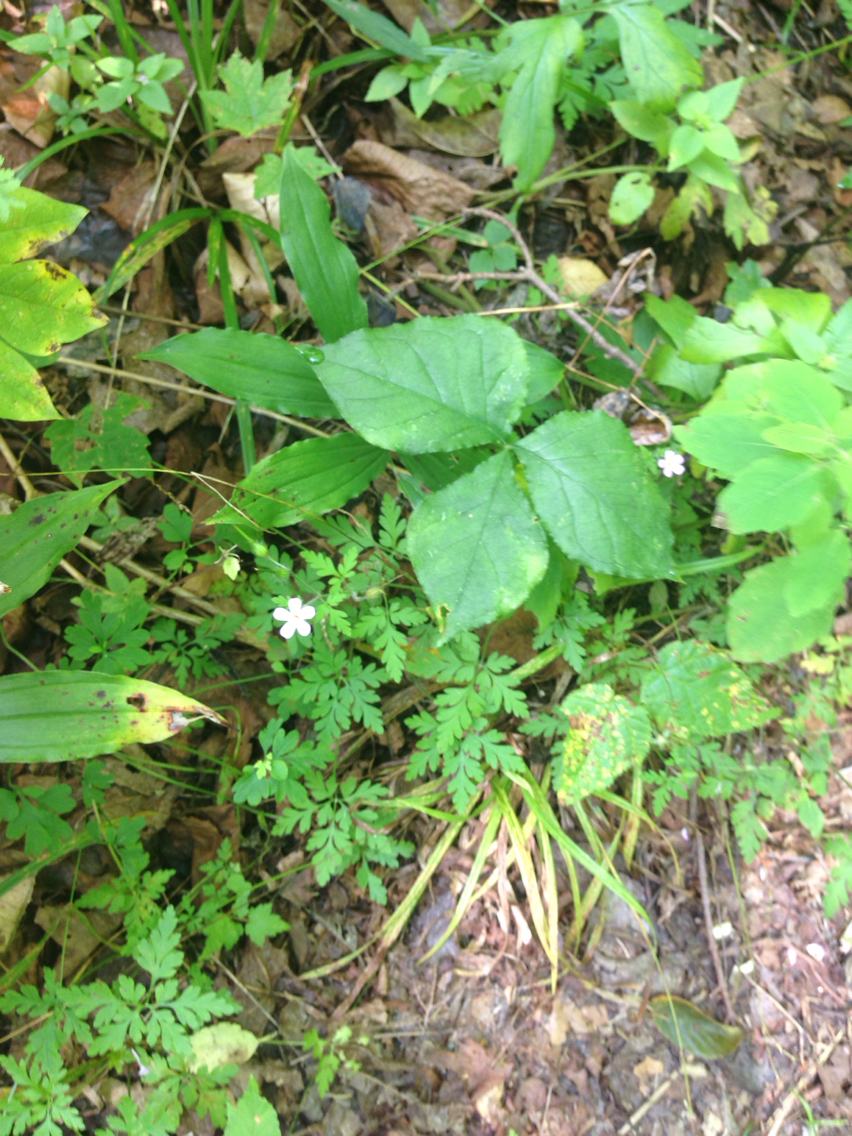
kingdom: Plantae
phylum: Tracheophyta
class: Magnoliopsida
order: Geraniales
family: Geraniaceae
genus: Geranium
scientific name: Geranium robertianum
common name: Herb-robert
